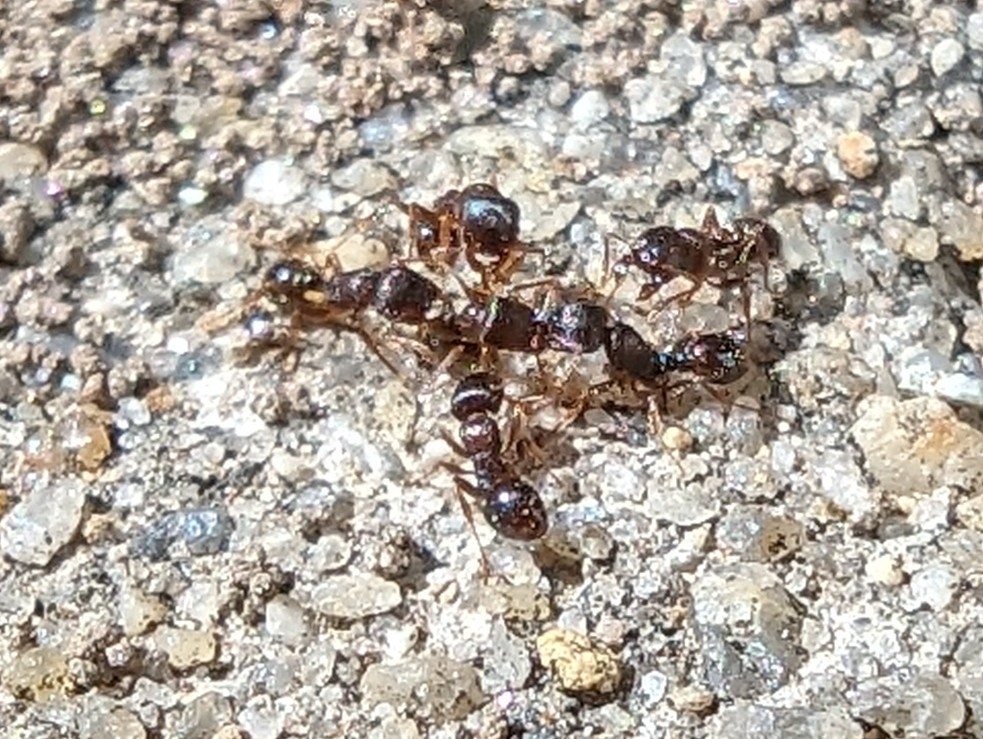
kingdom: Animalia
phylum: Arthropoda
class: Insecta
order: Hymenoptera
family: Formicidae
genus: Tetramorium
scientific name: Tetramorium immigrans
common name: Pavement ant
